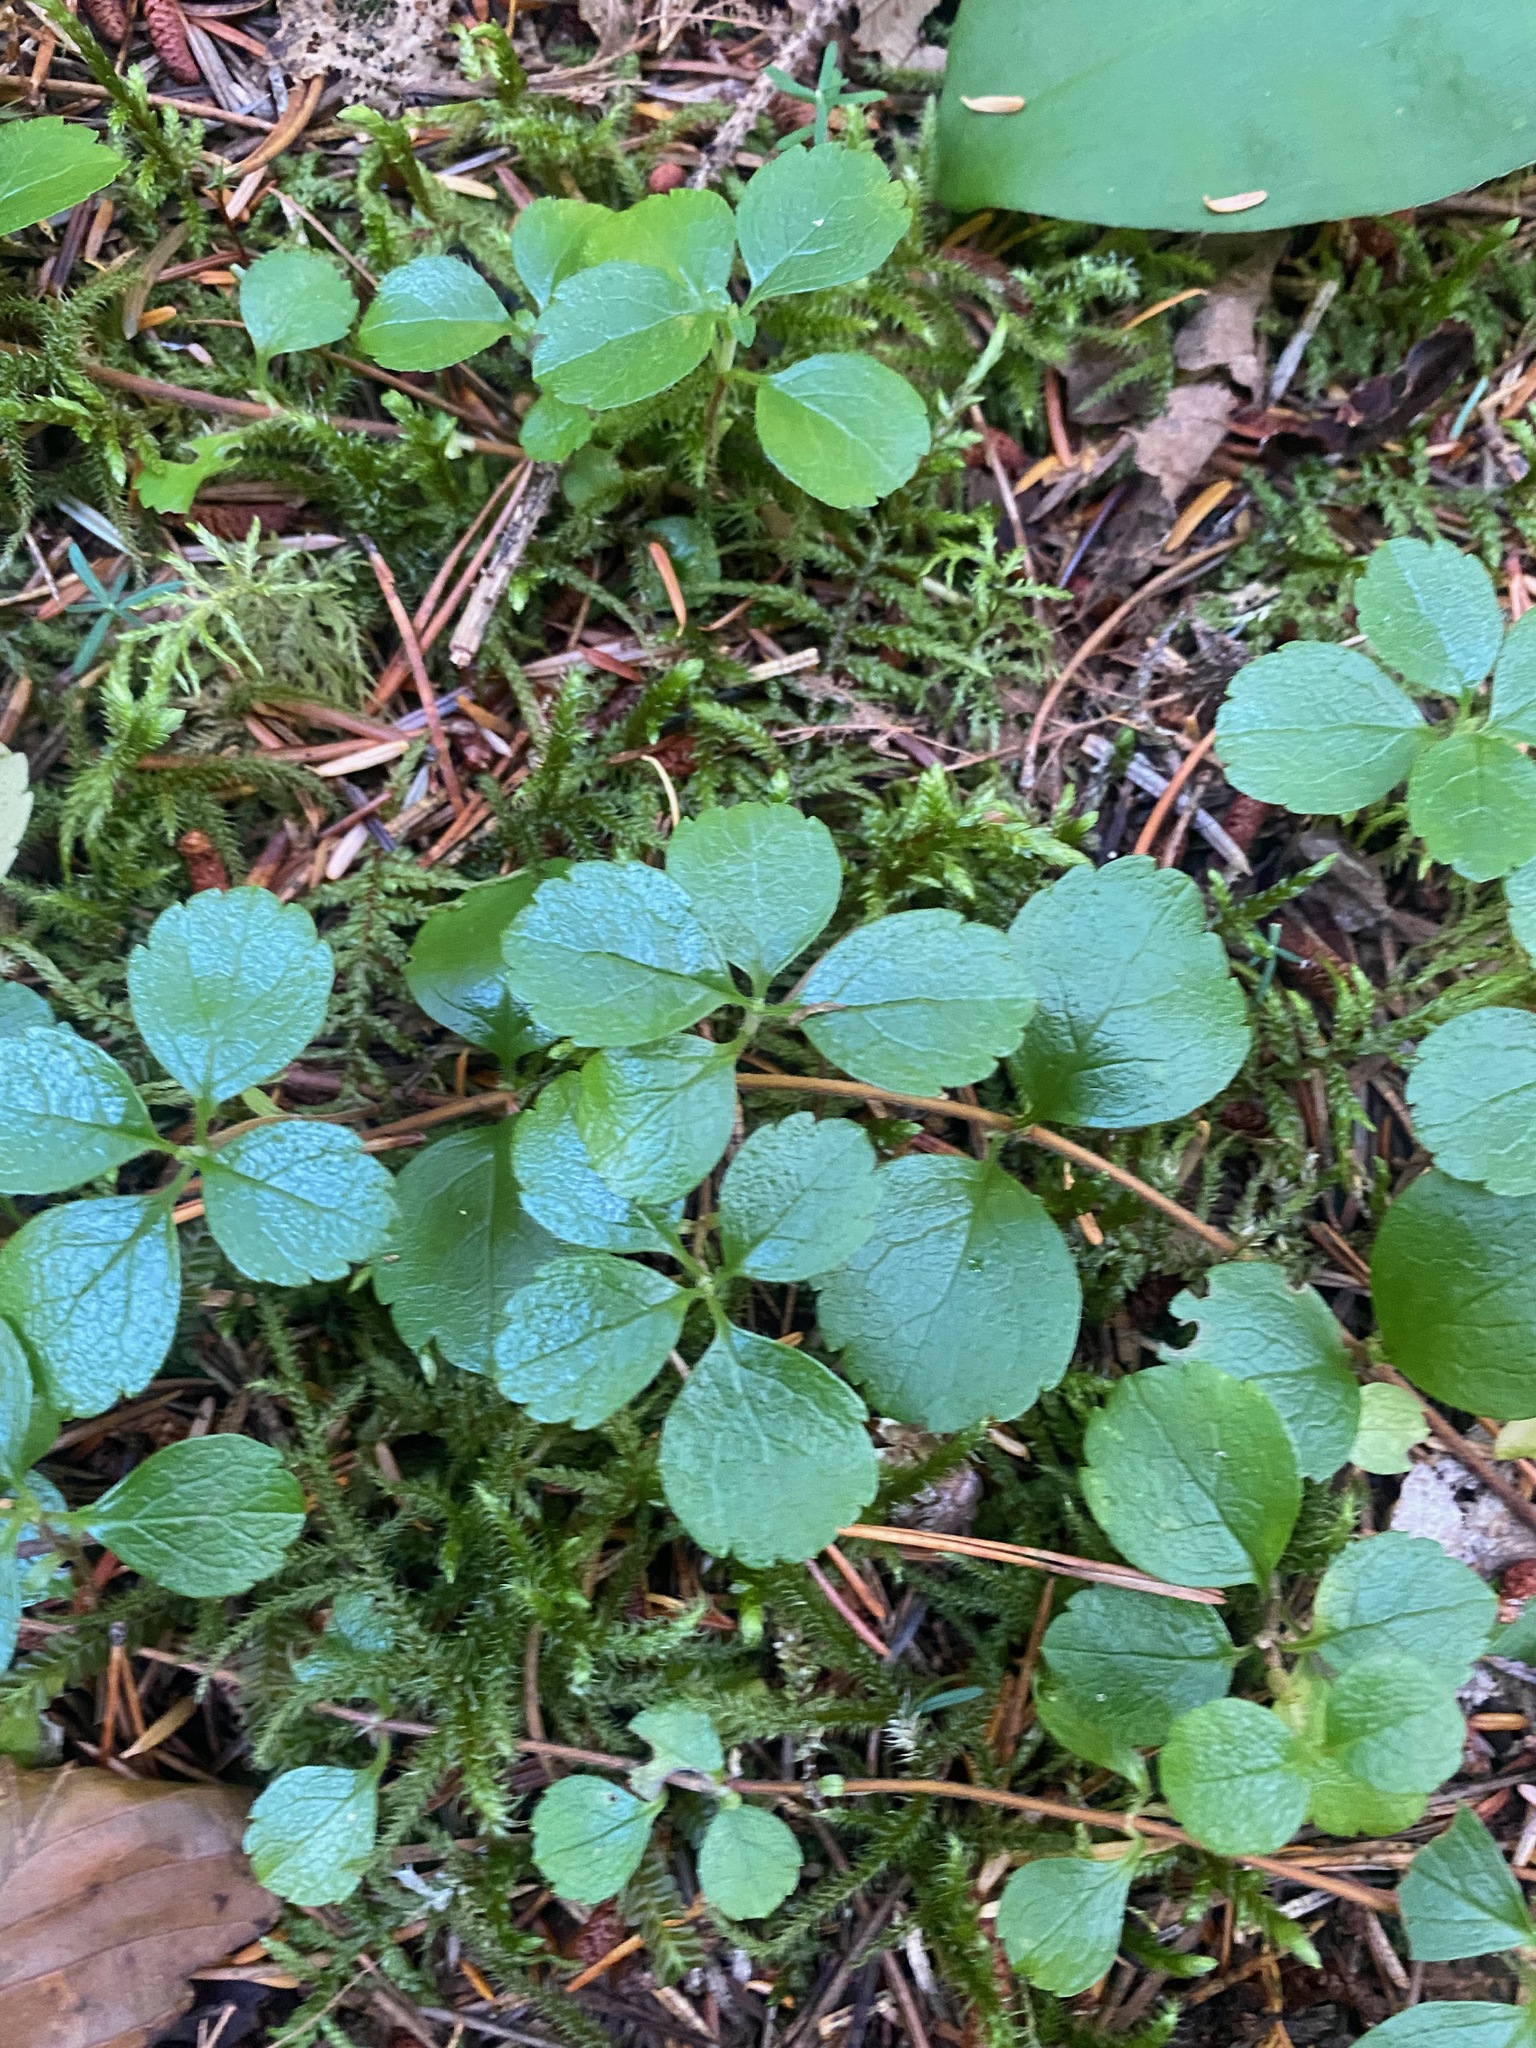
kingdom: Plantae
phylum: Tracheophyta
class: Magnoliopsida
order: Dipsacales
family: Caprifoliaceae
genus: Linnaea
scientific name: Linnaea borealis
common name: Twinflower
